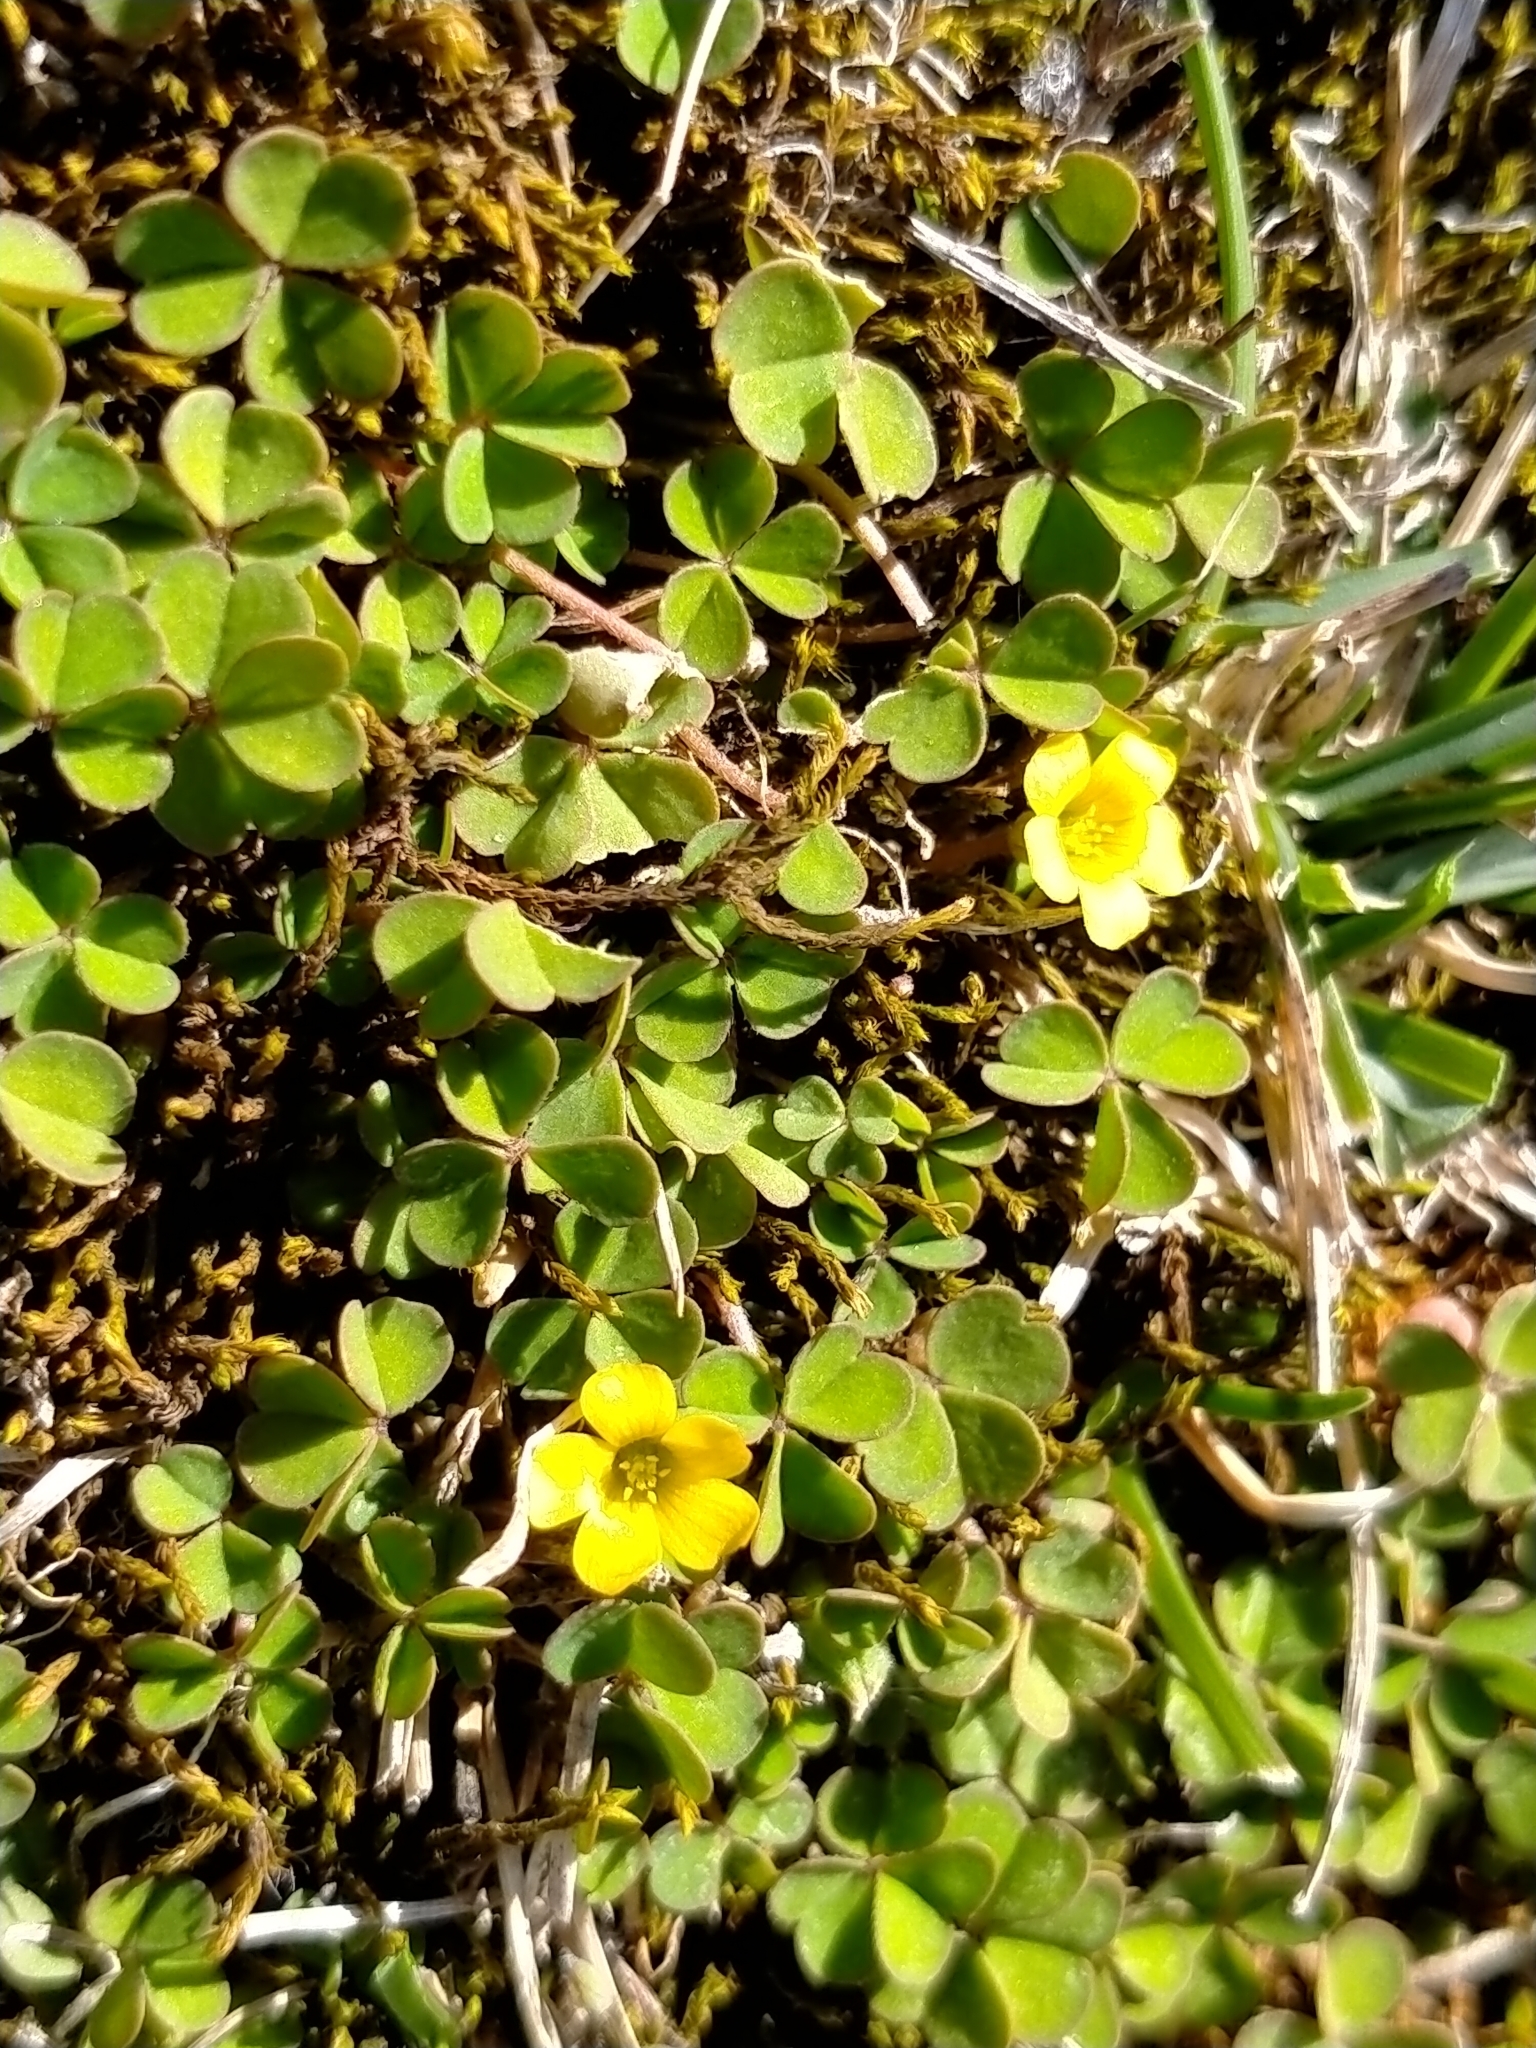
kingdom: Plantae
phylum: Tracheophyta
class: Magnoliopsida
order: Oxalidales
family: Oxalidaceae
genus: Oxalis
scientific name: Oxalis exilis
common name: Least yellow-sorrel
